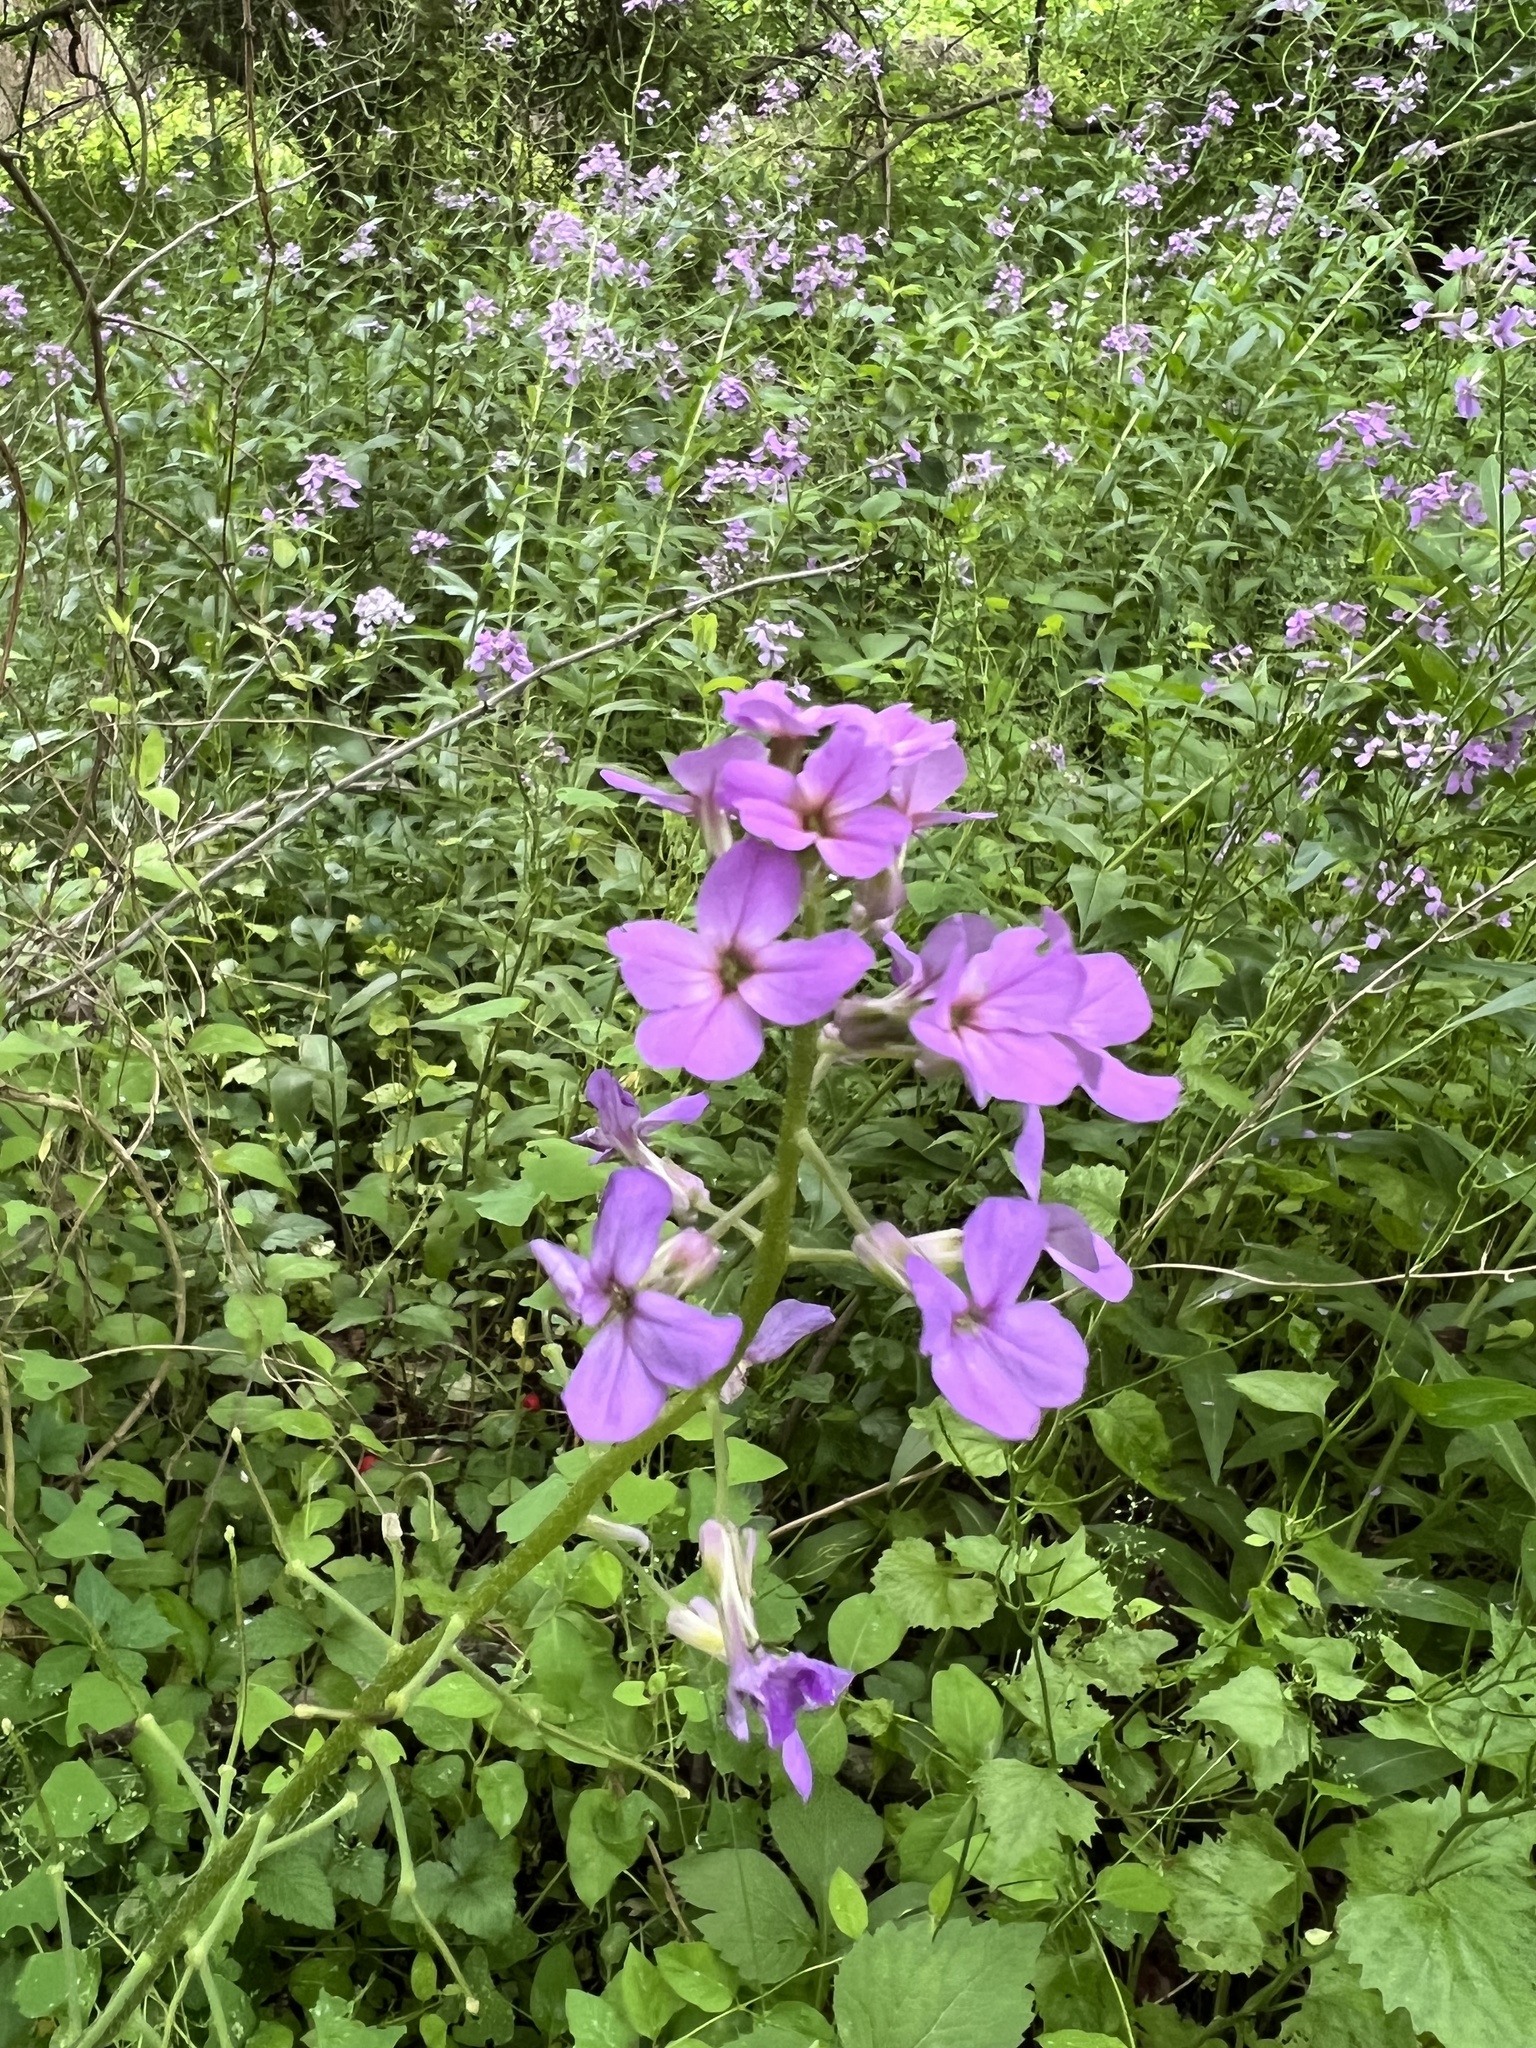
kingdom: Plantae
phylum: Tracheophyta
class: Magnoliopsida
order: Brassicales
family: Brassicaceae
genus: Hesperis
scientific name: Hesperis matronalis
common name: Dame's-violet
